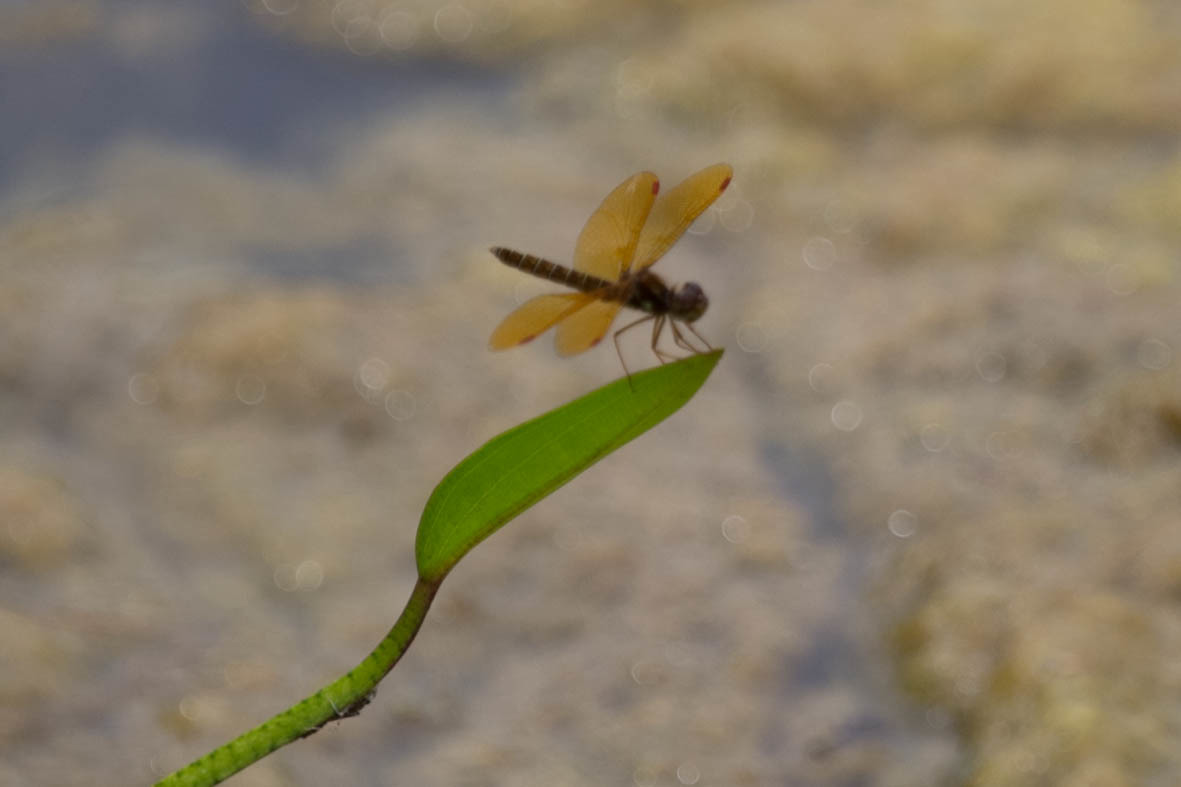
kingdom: Animalia
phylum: Arthropoda
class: Insecta
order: Odonata
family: Libellulidae
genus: Perithemis
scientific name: Perithemis tenera
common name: Eastern amberwing
